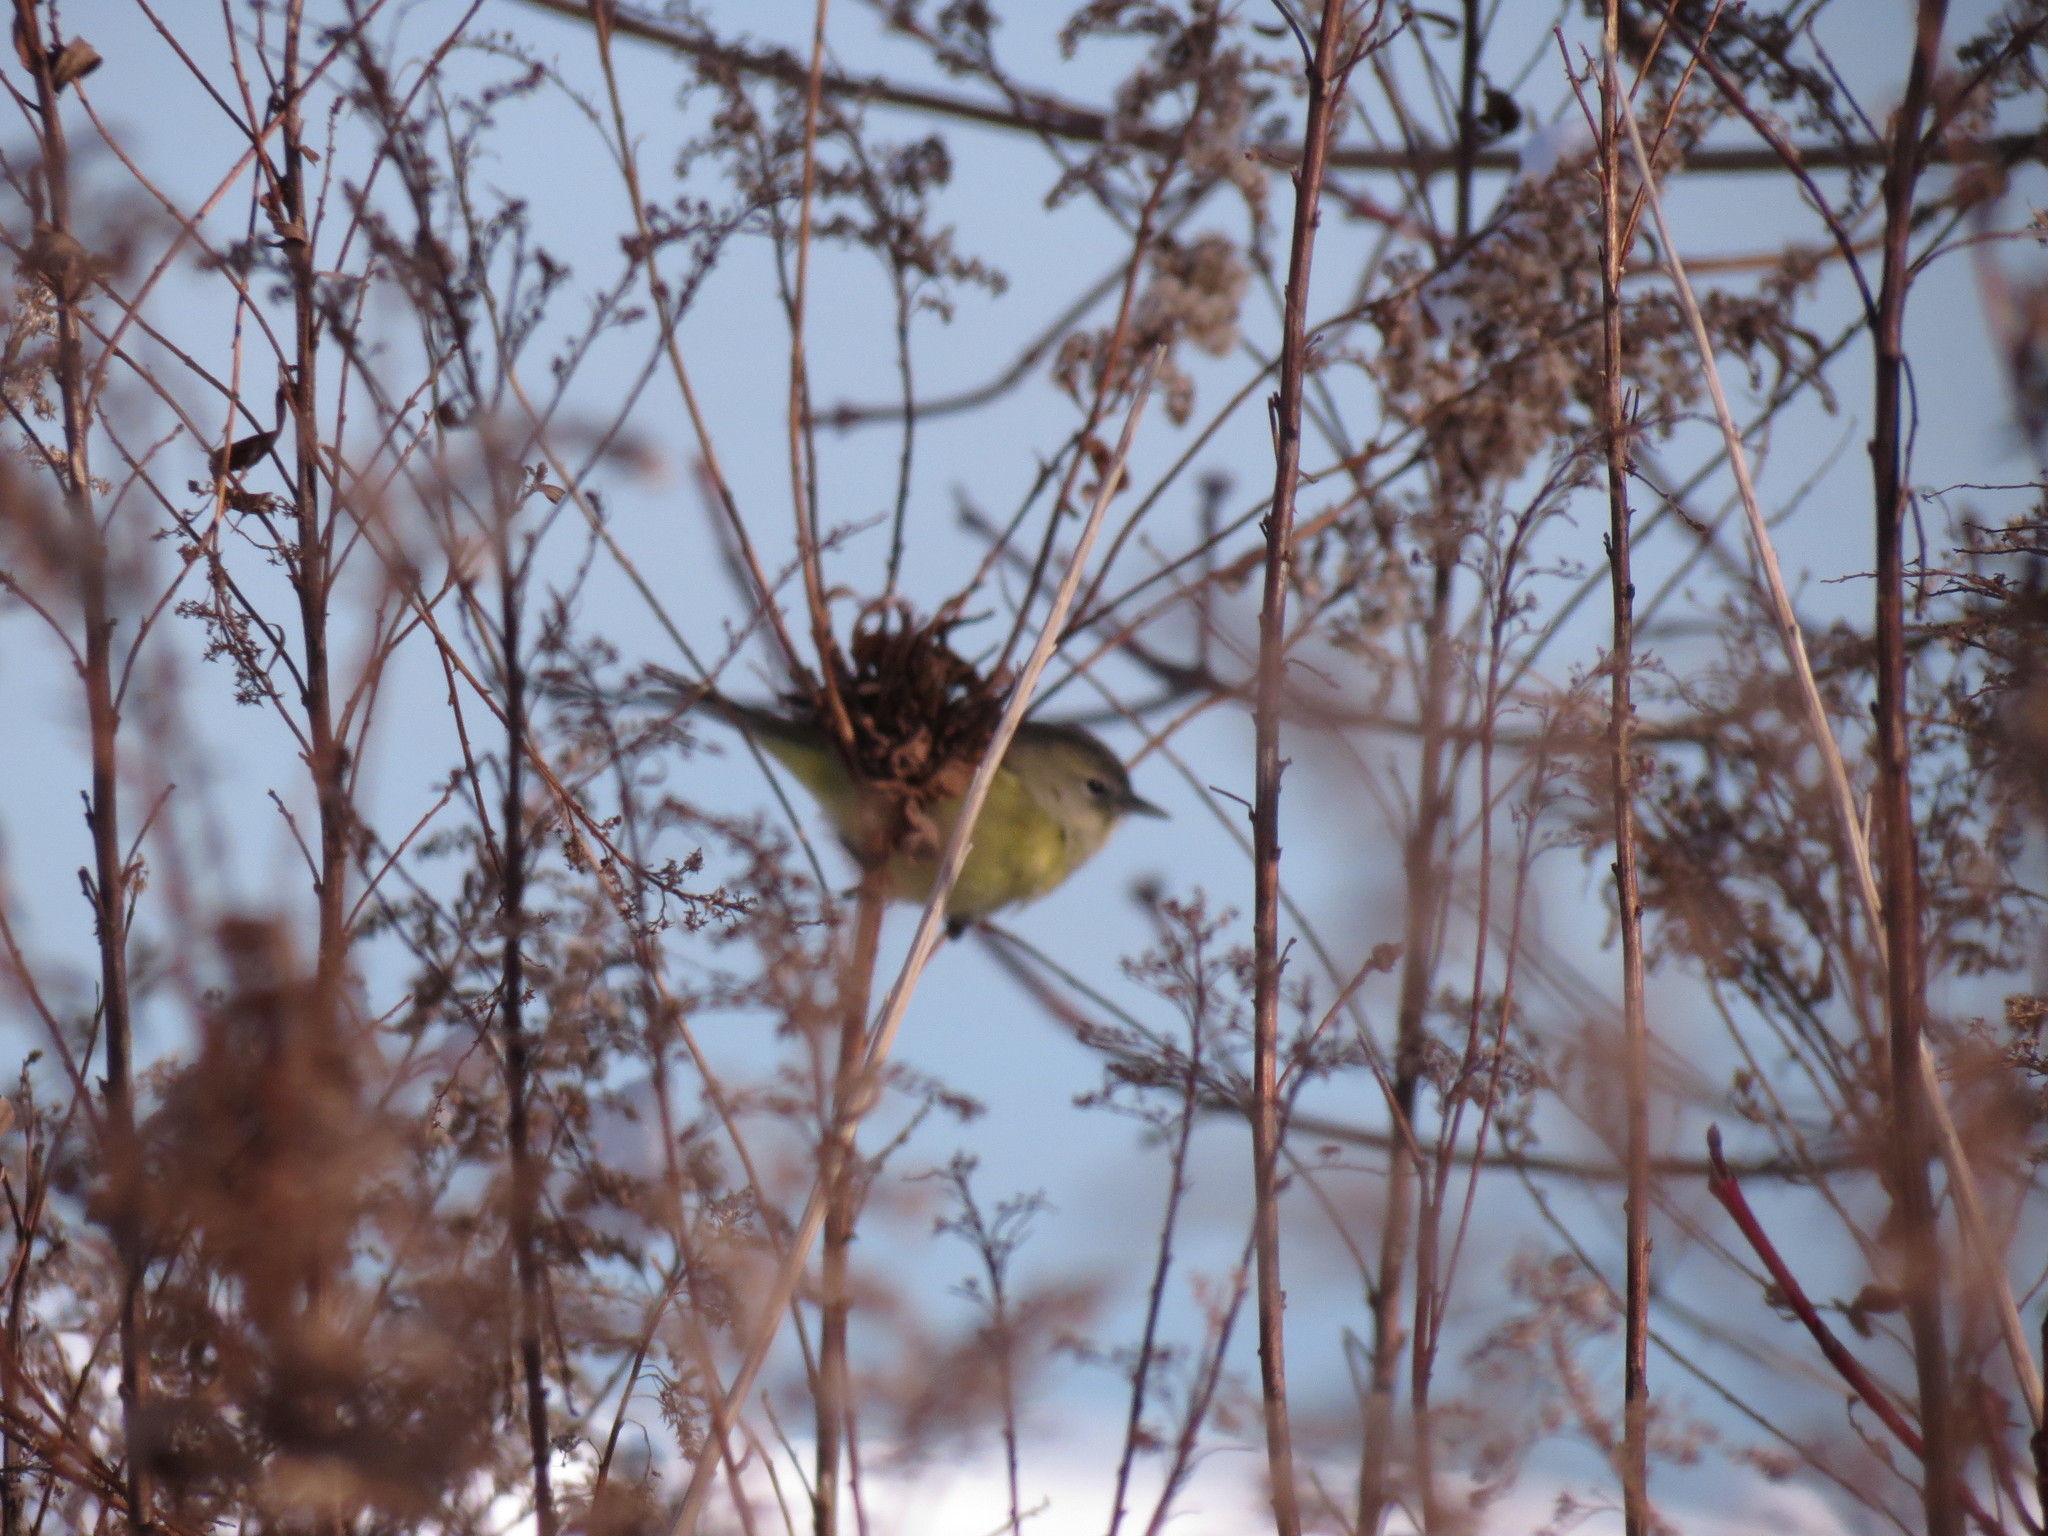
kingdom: Animalia
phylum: Chordata
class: Aves
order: Passeriformes
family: Parulidae
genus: Leiothlypis
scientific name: Leiothlypis celata
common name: Orange-crowned warbler
